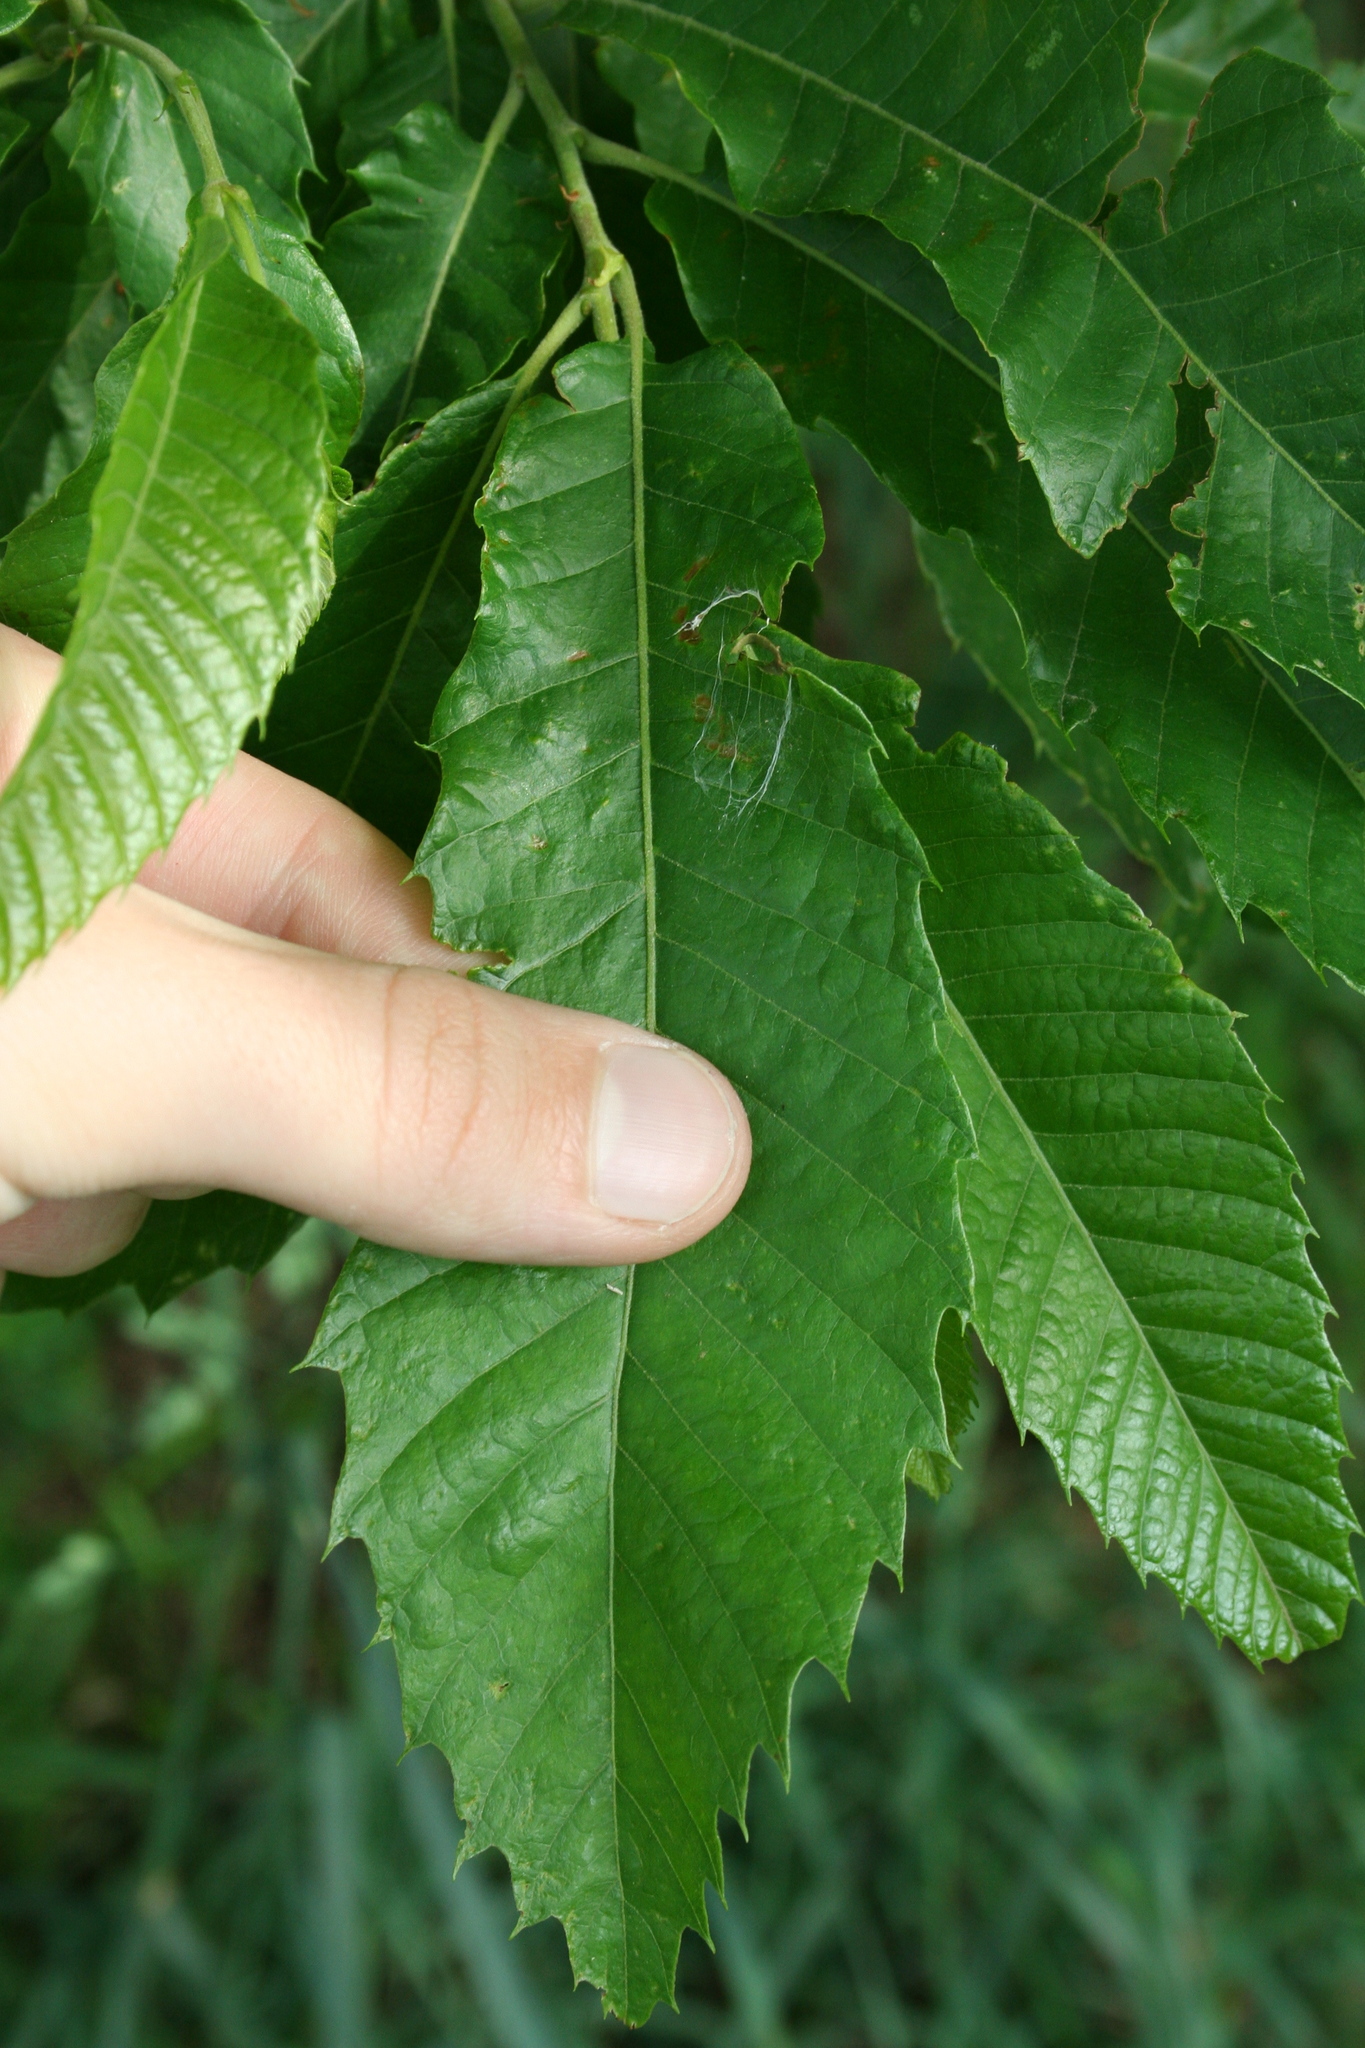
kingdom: Plantae
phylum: Tracheophyta
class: Magnoliopsida
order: Fagales
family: Fagaceae
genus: Castanea
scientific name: Castanea crenata
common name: Japanese chestnut
